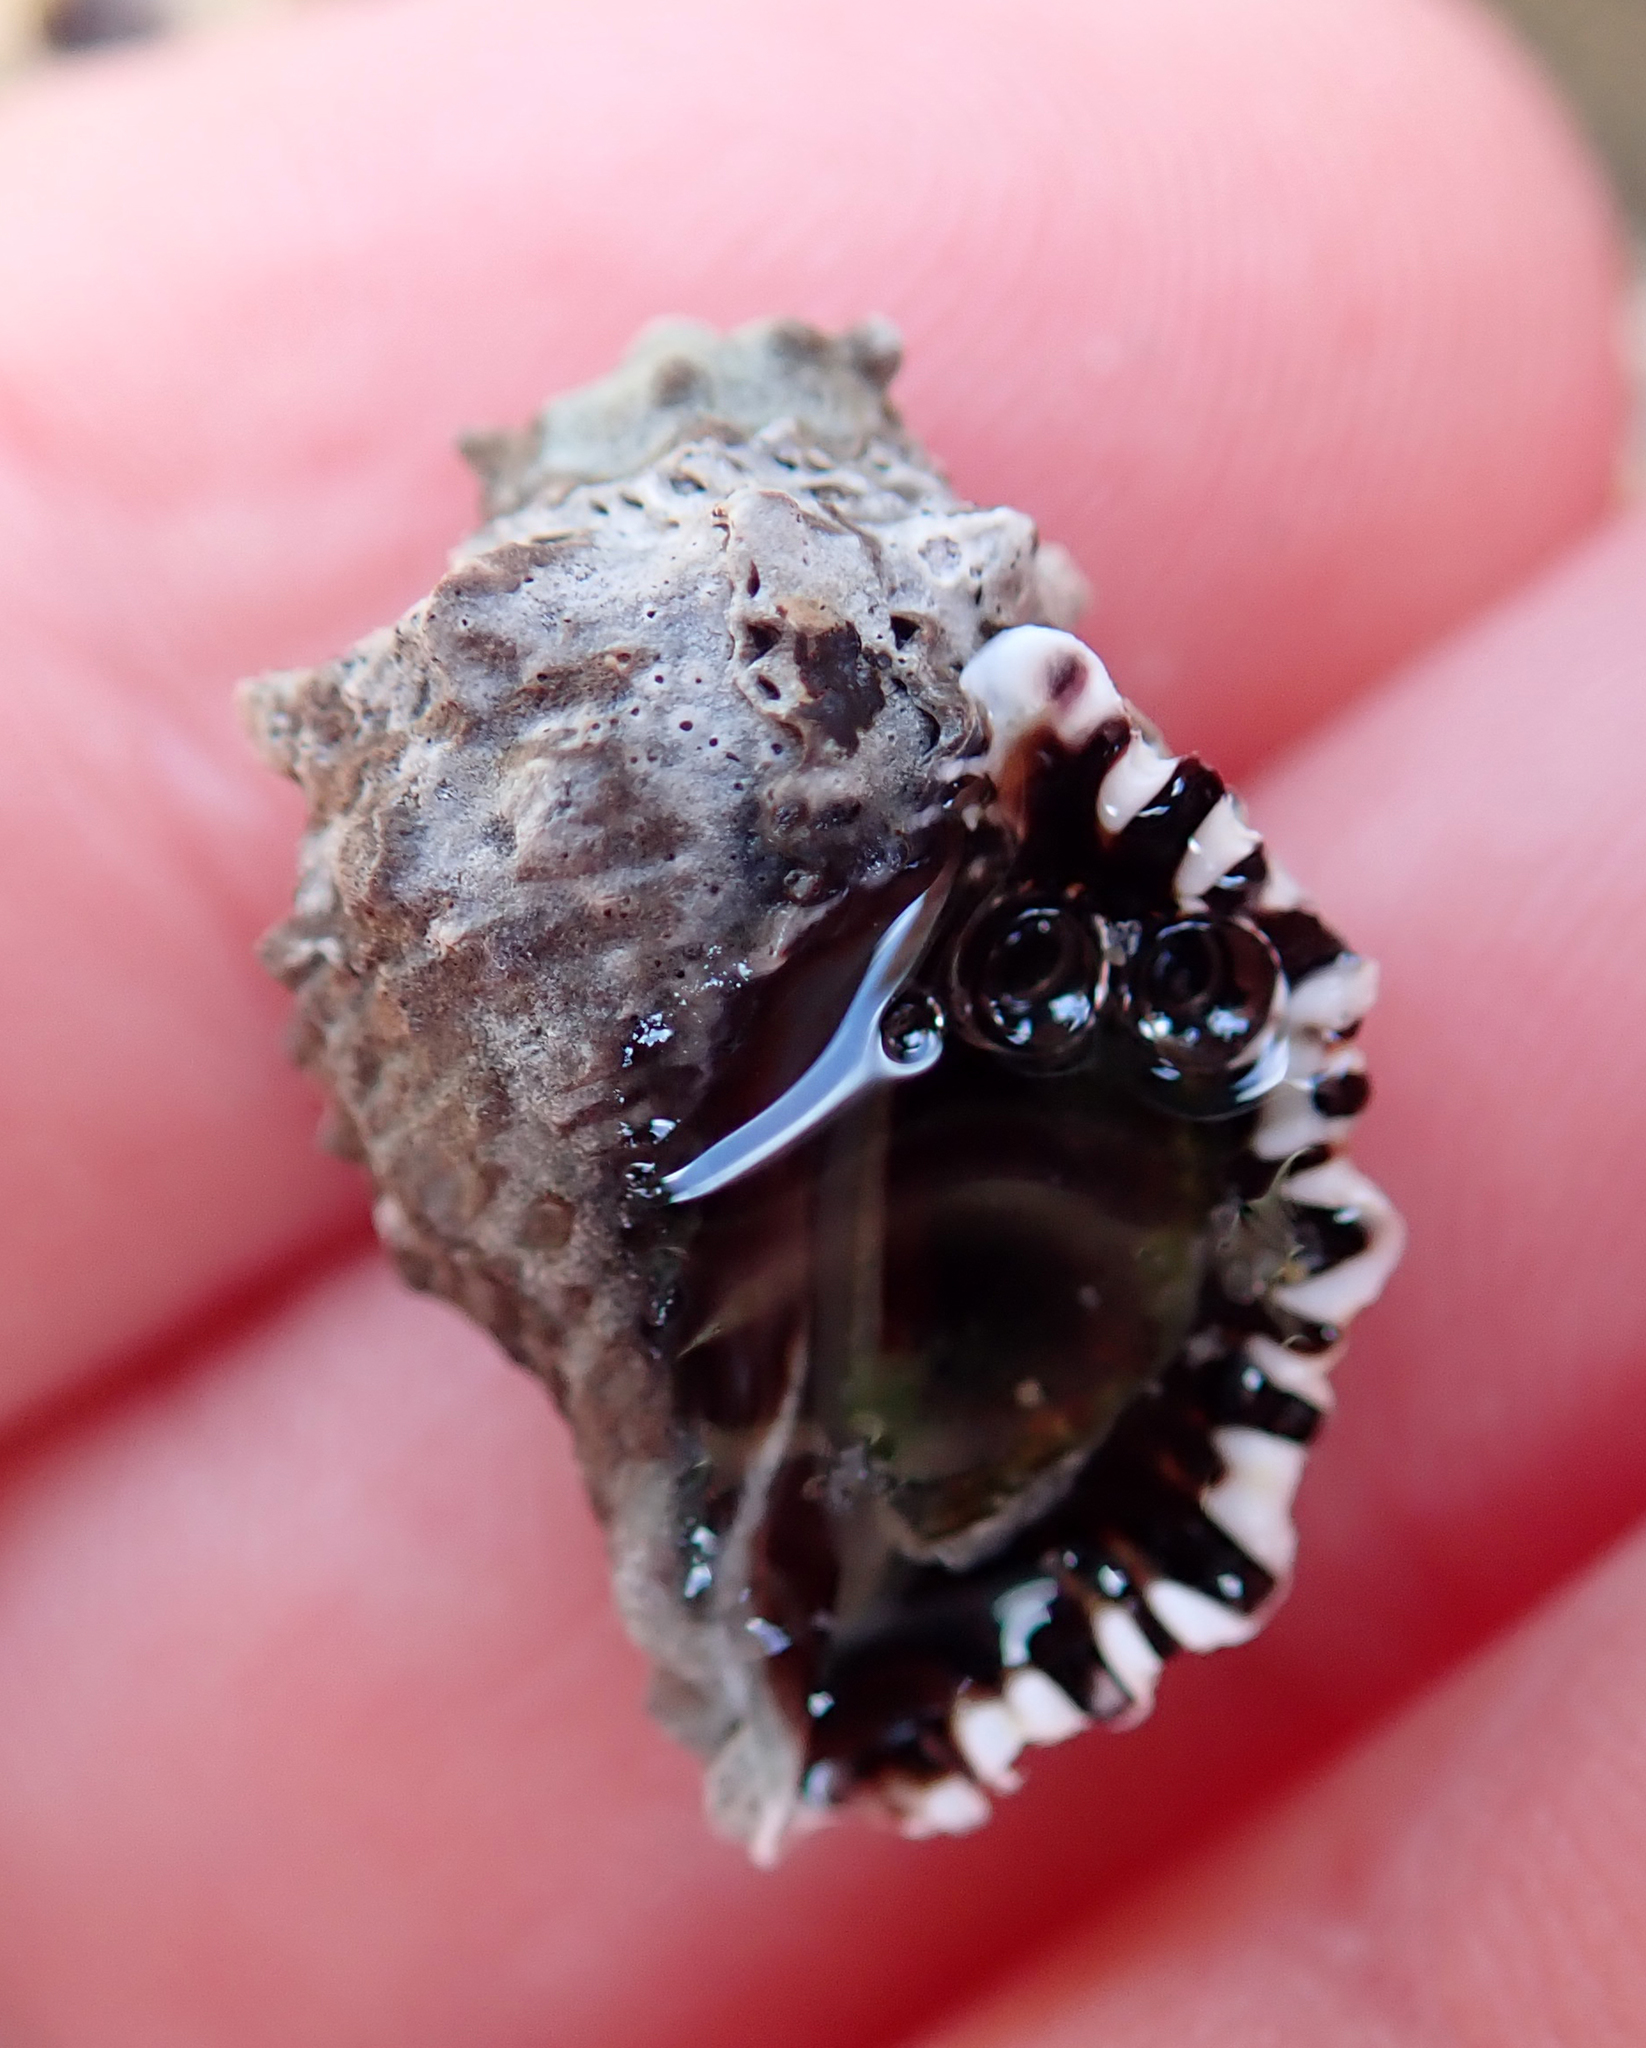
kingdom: Animalia
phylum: Mollusca
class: Gastropoda
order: Neogastropoda
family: Muricidae
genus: Haustrum
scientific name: Haustrum scobina
